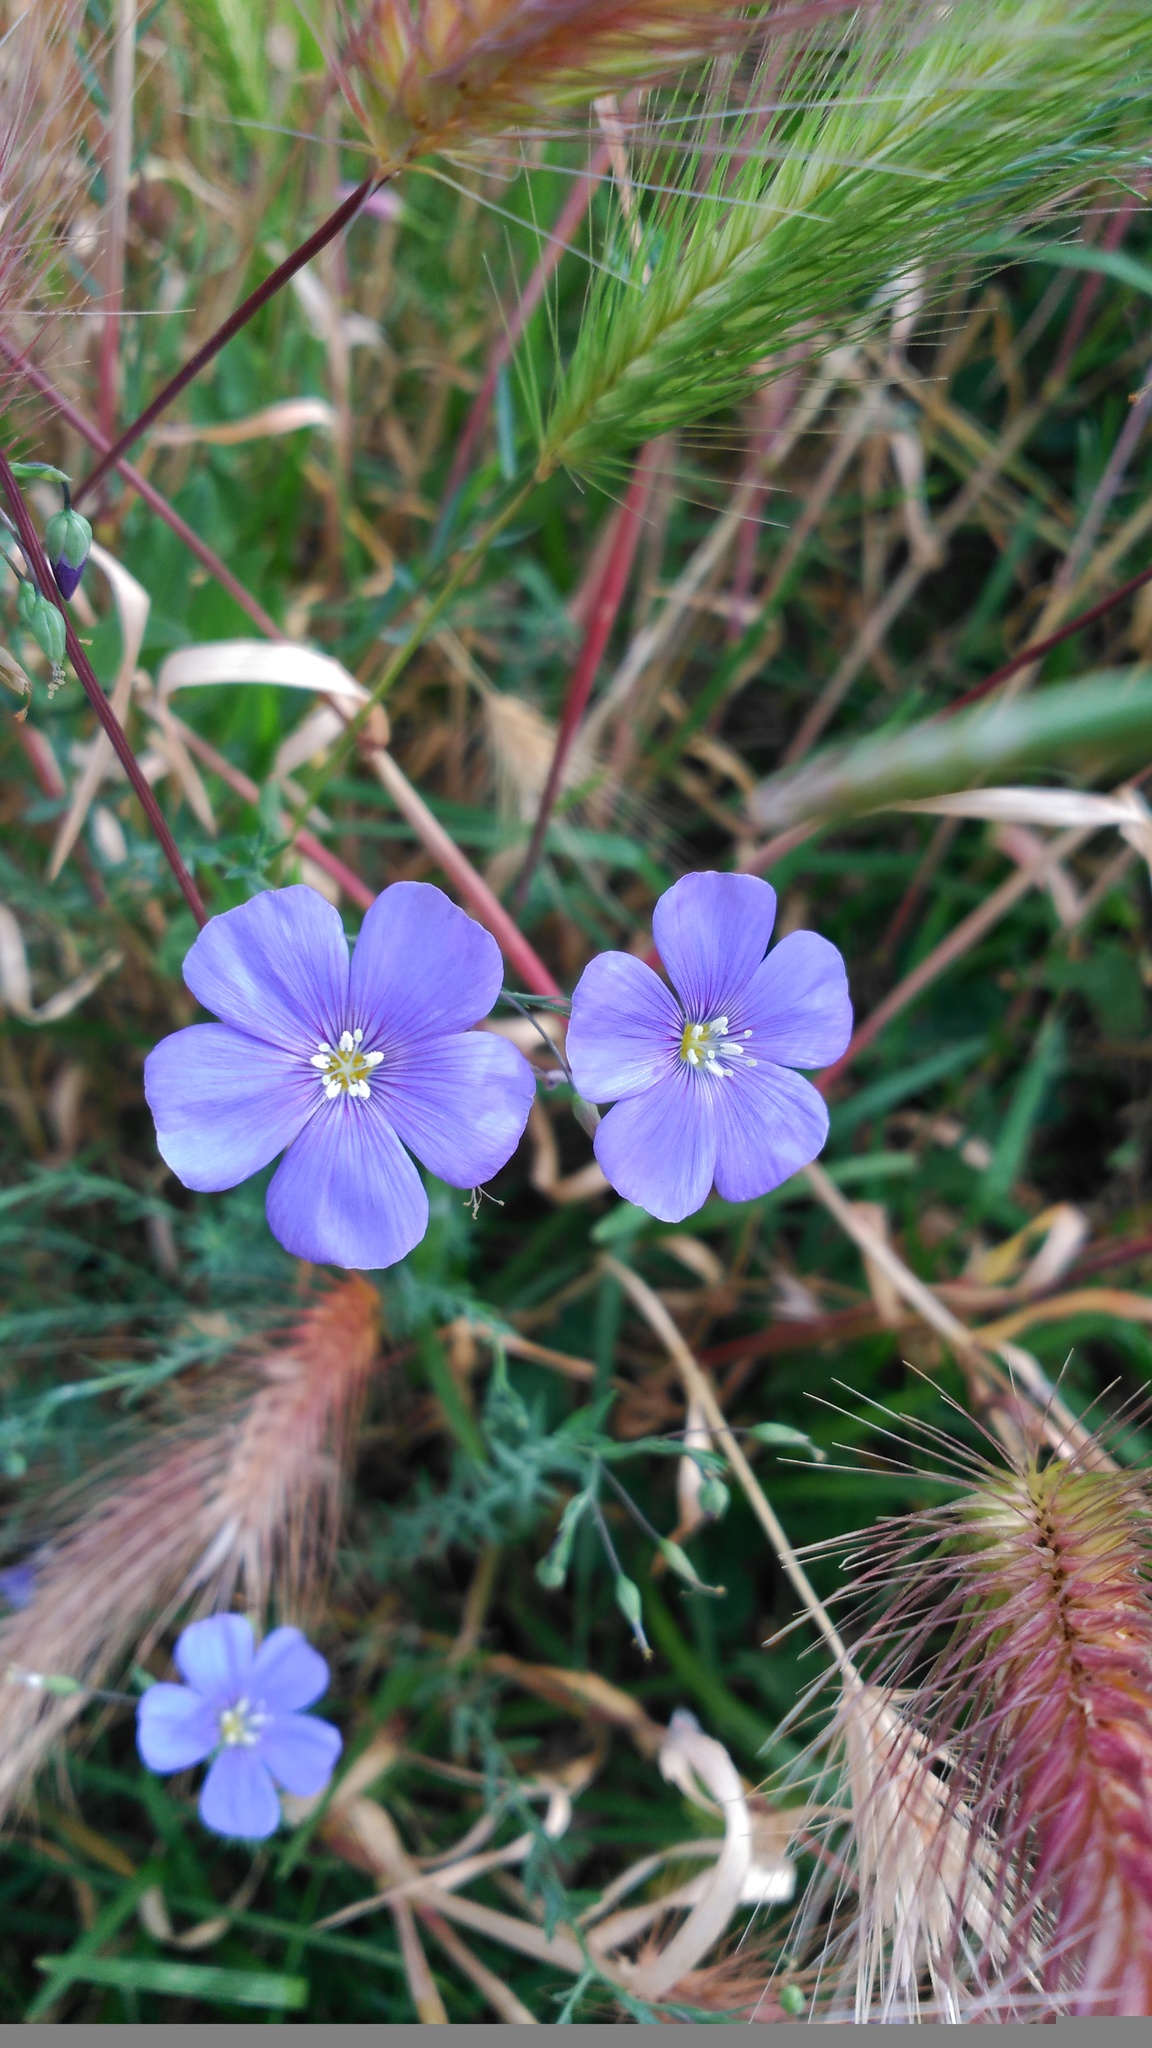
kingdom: Plantae
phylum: Tracheophyta
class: Magnoliopsida
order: Malpighiales
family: Linaceae
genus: Linum
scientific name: Linum narbonense
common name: Flax
